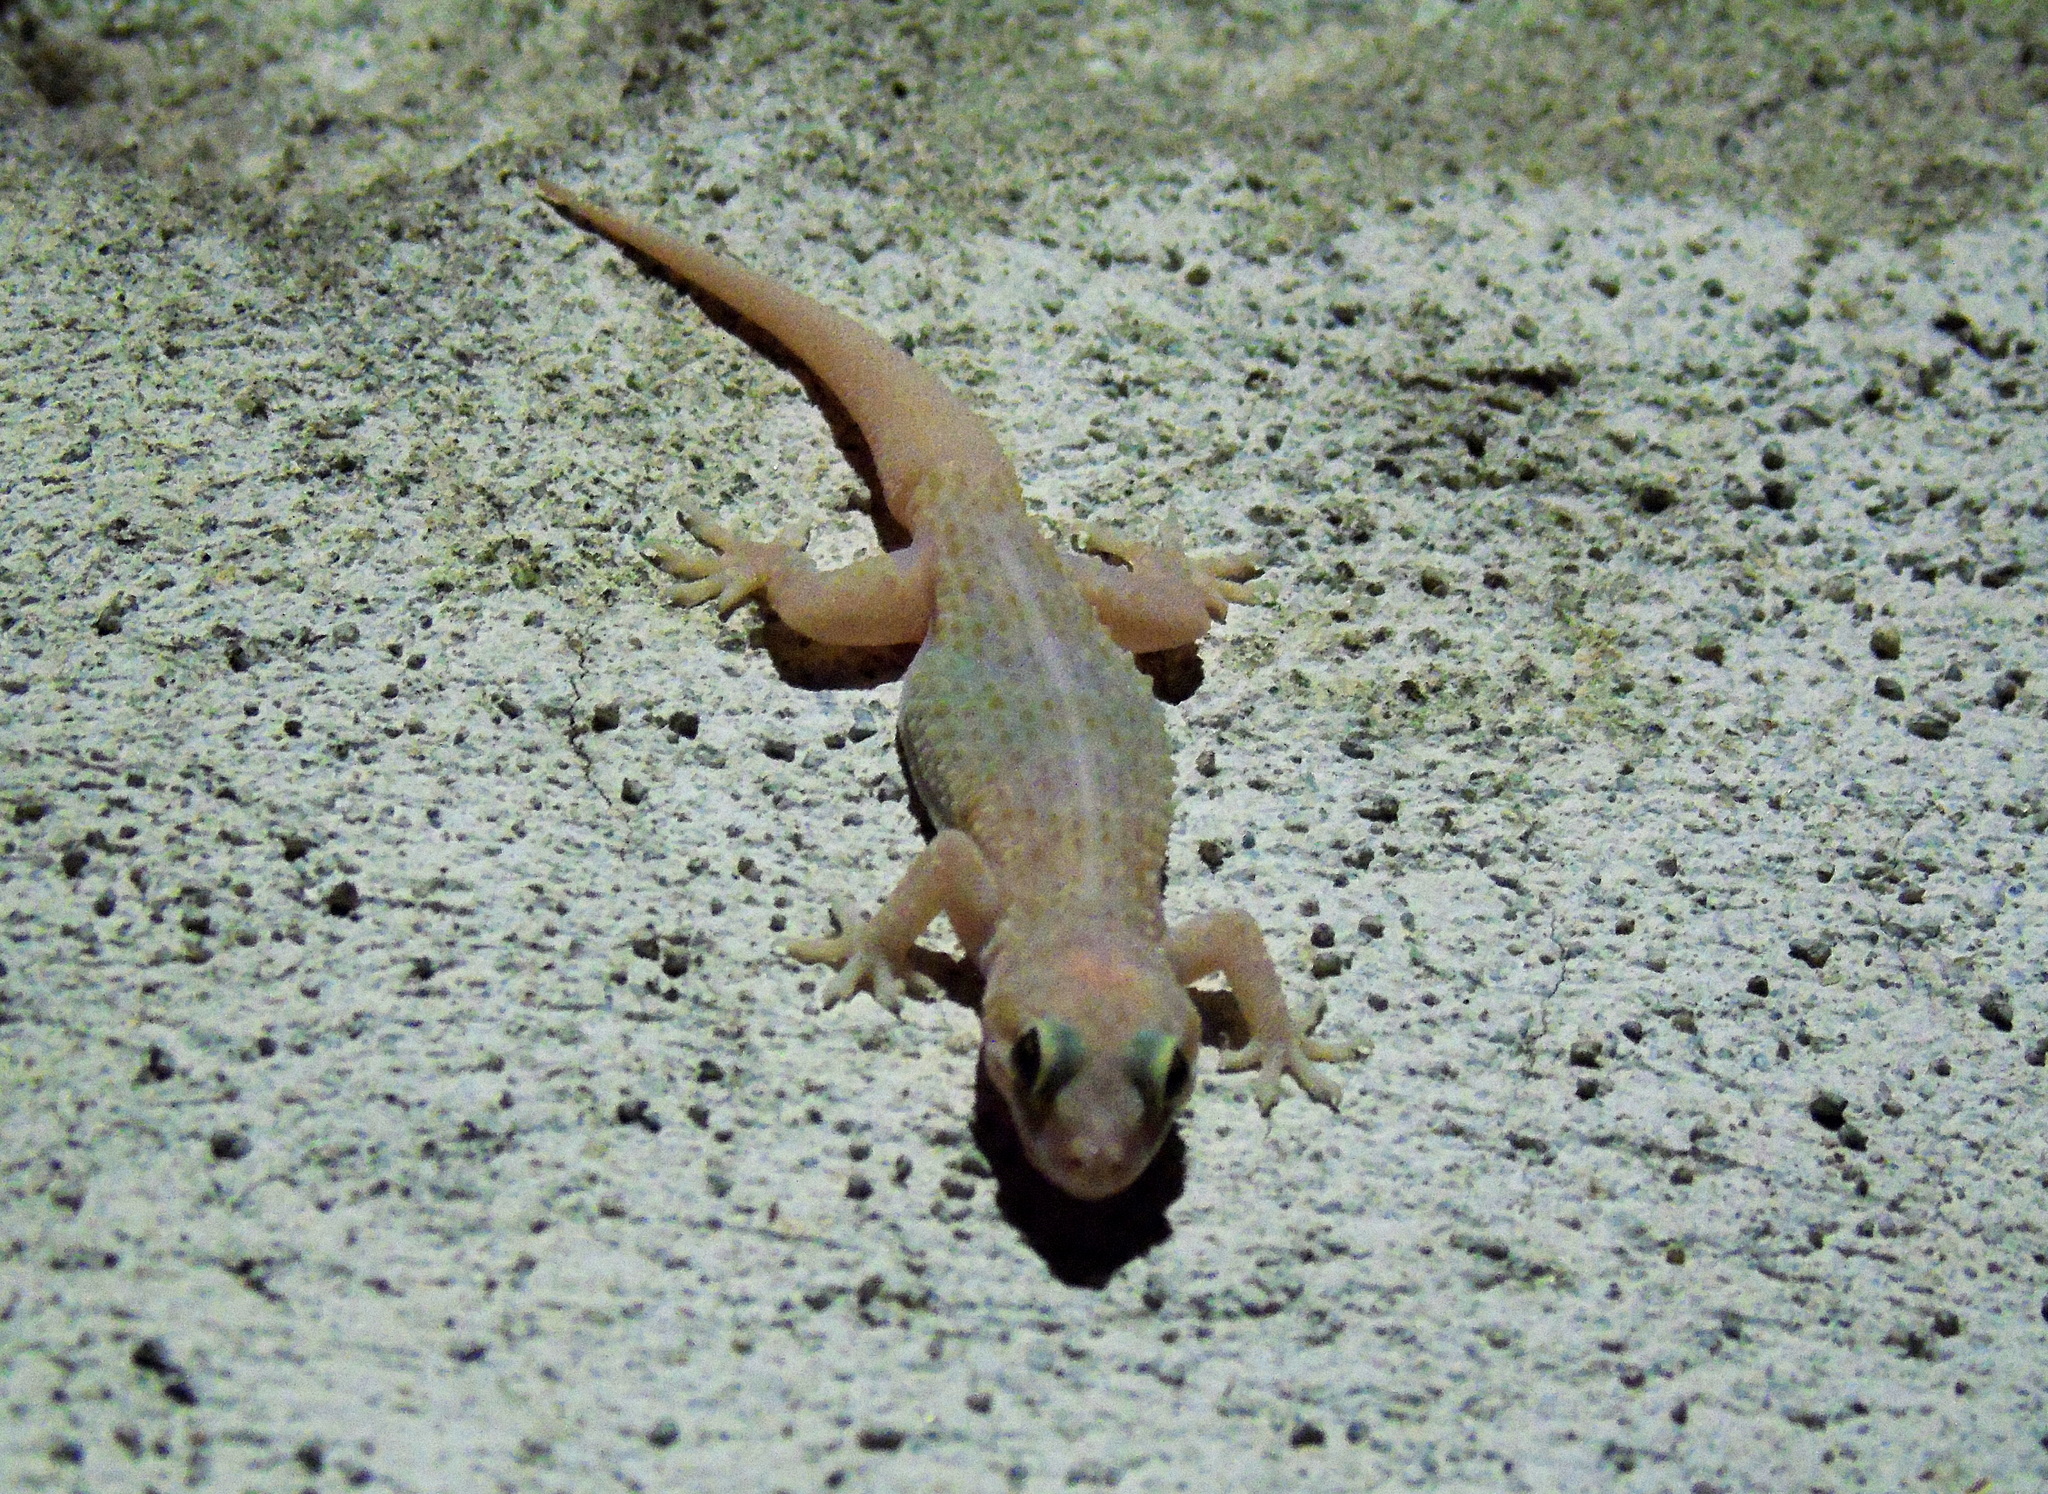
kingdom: Animalia
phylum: Chordata
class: Squamata
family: Gekkonidae
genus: Hemidactylus
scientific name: Hemidactylus turcicus
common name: Turkish gecko
